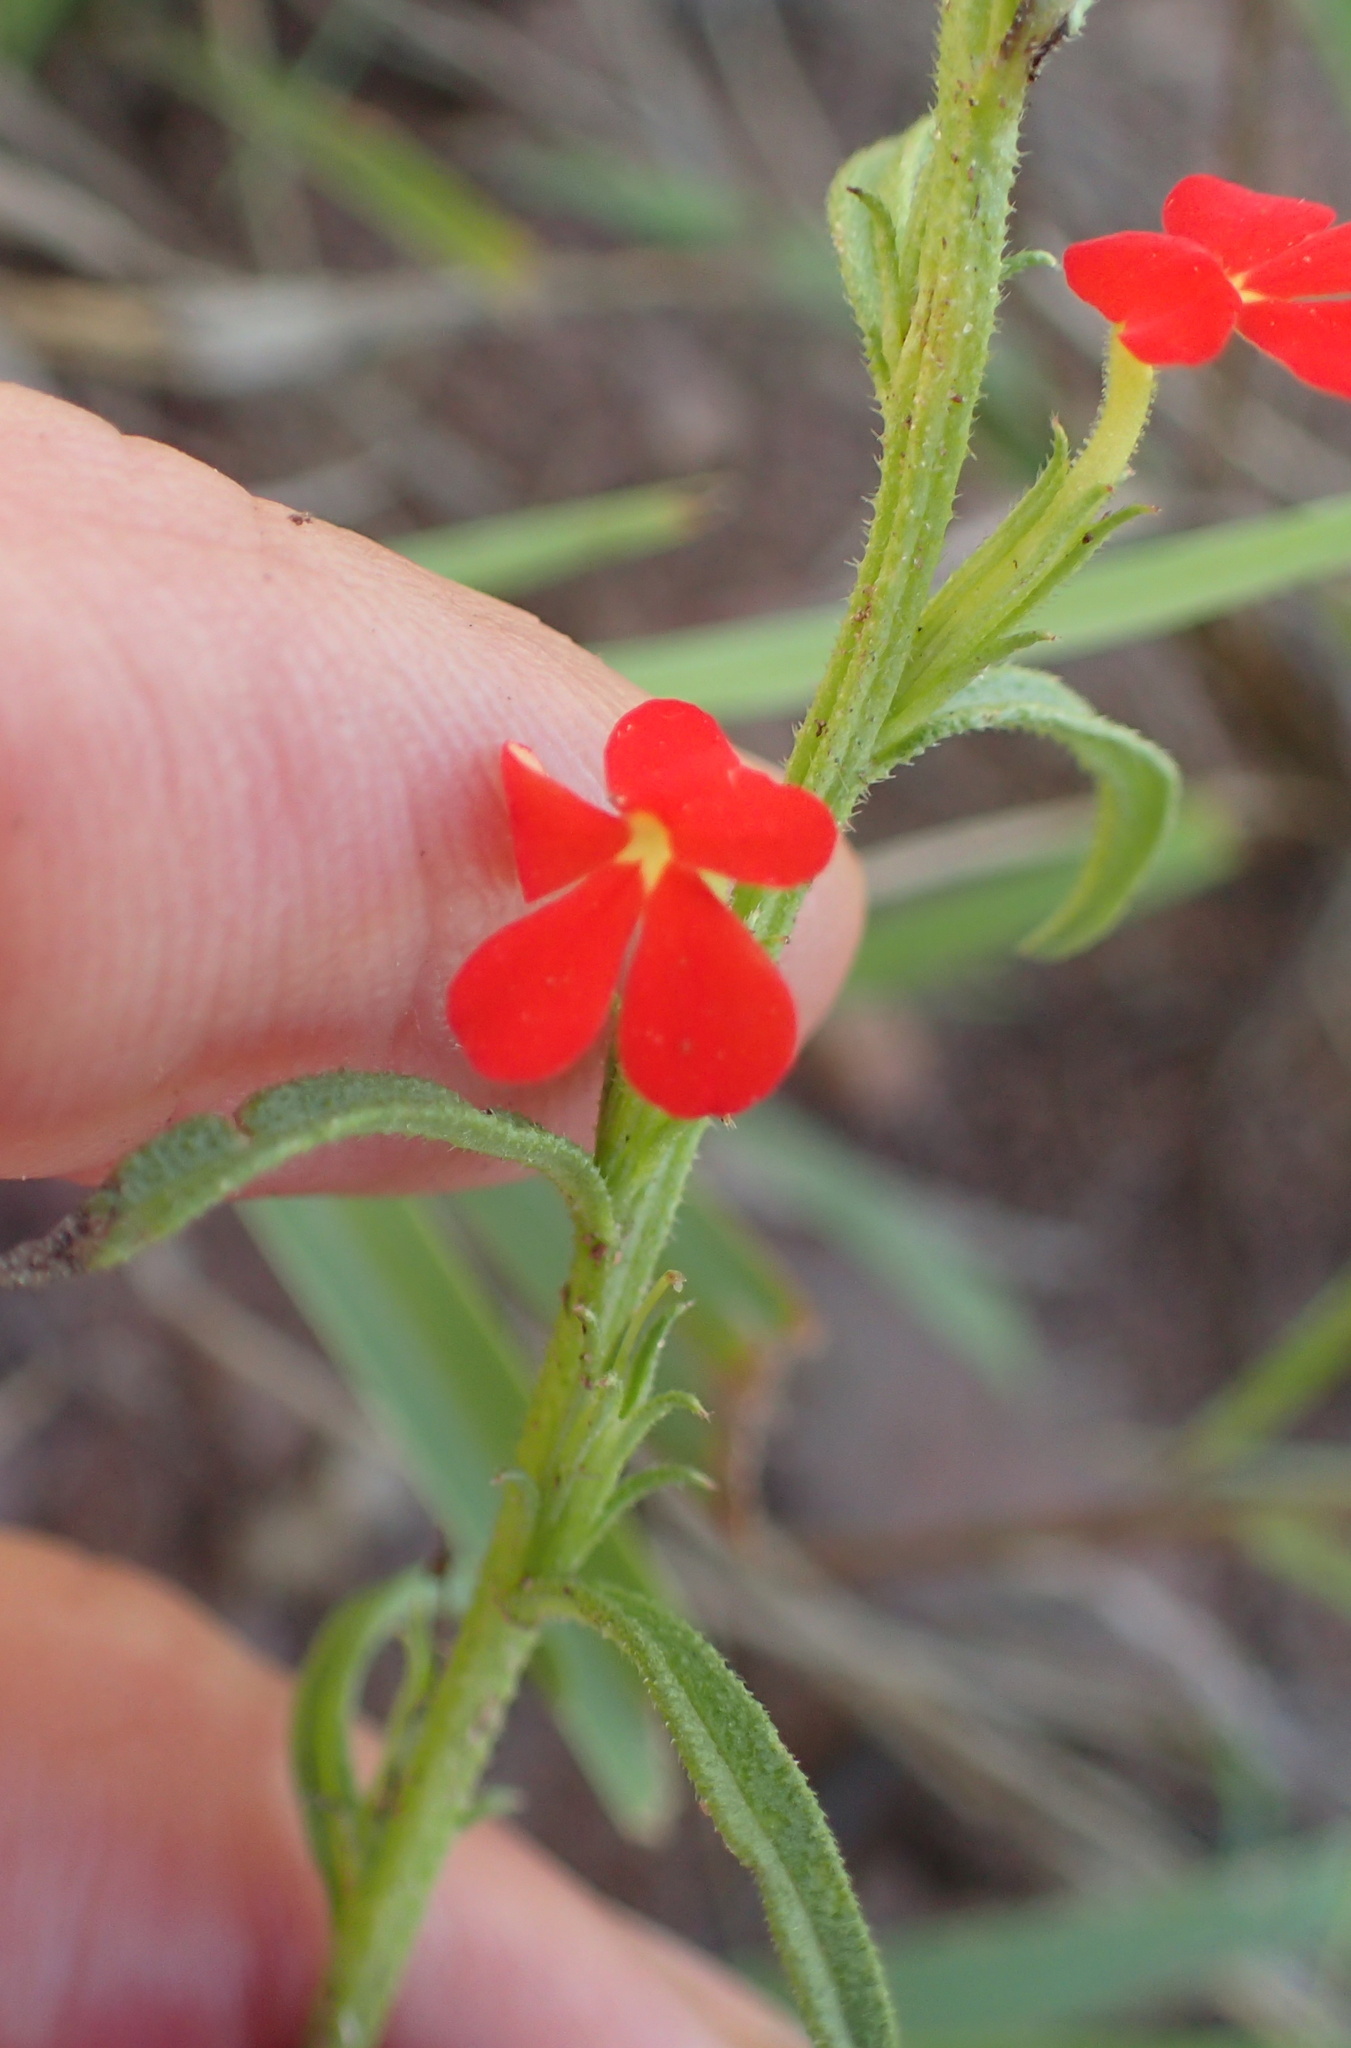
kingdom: Plantae
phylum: Tracheophyta
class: Magnoliopsida
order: Lamiales
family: Orobanchaceae
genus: Striga
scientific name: Striga asiatica
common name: Asiatic witchweed
